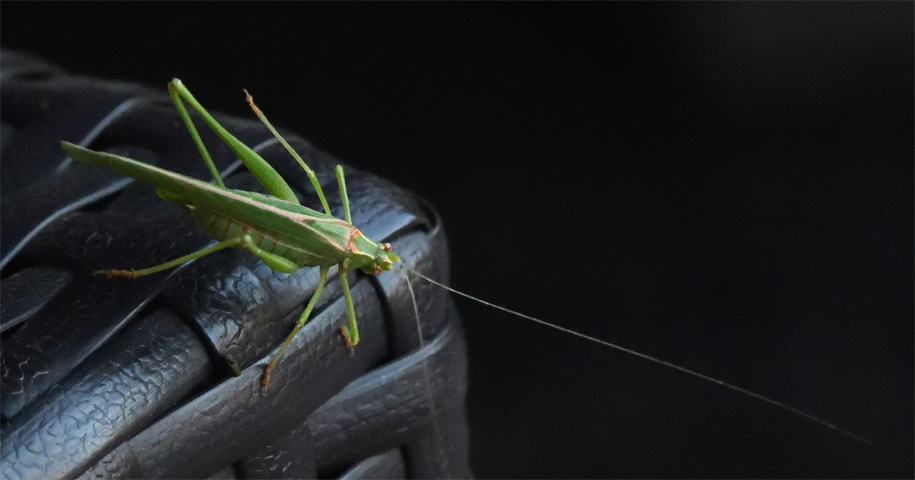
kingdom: Animalia
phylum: Arthropoda
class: Insecta
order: Orthoptera
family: Tettigoniidae
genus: Insara
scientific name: Insara elegans
